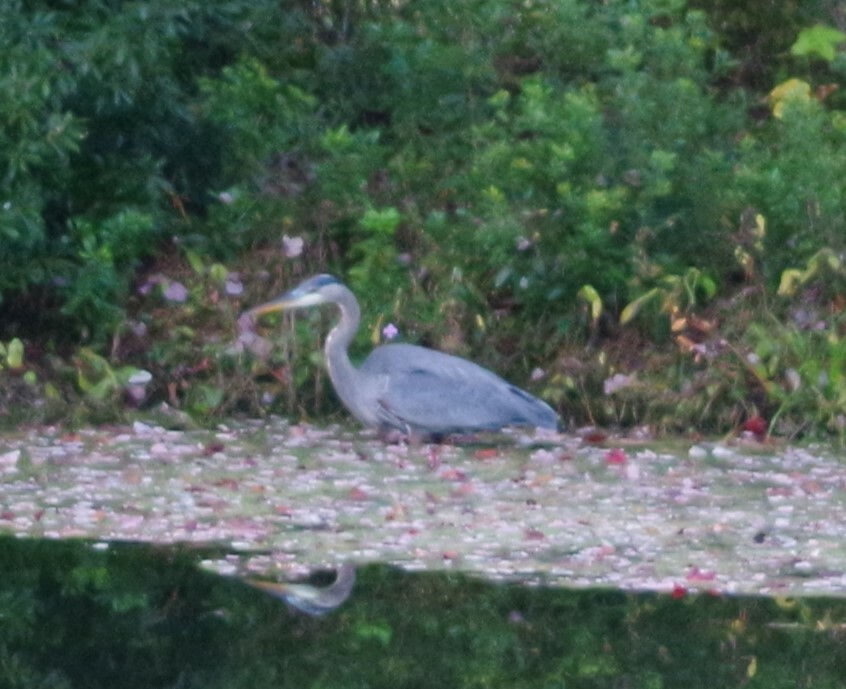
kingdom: Animalia
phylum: Chordata
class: Aves
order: Pelecaniformes
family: Ardeidae
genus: Ardea
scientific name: Ardea herodias
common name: Great blue heron
